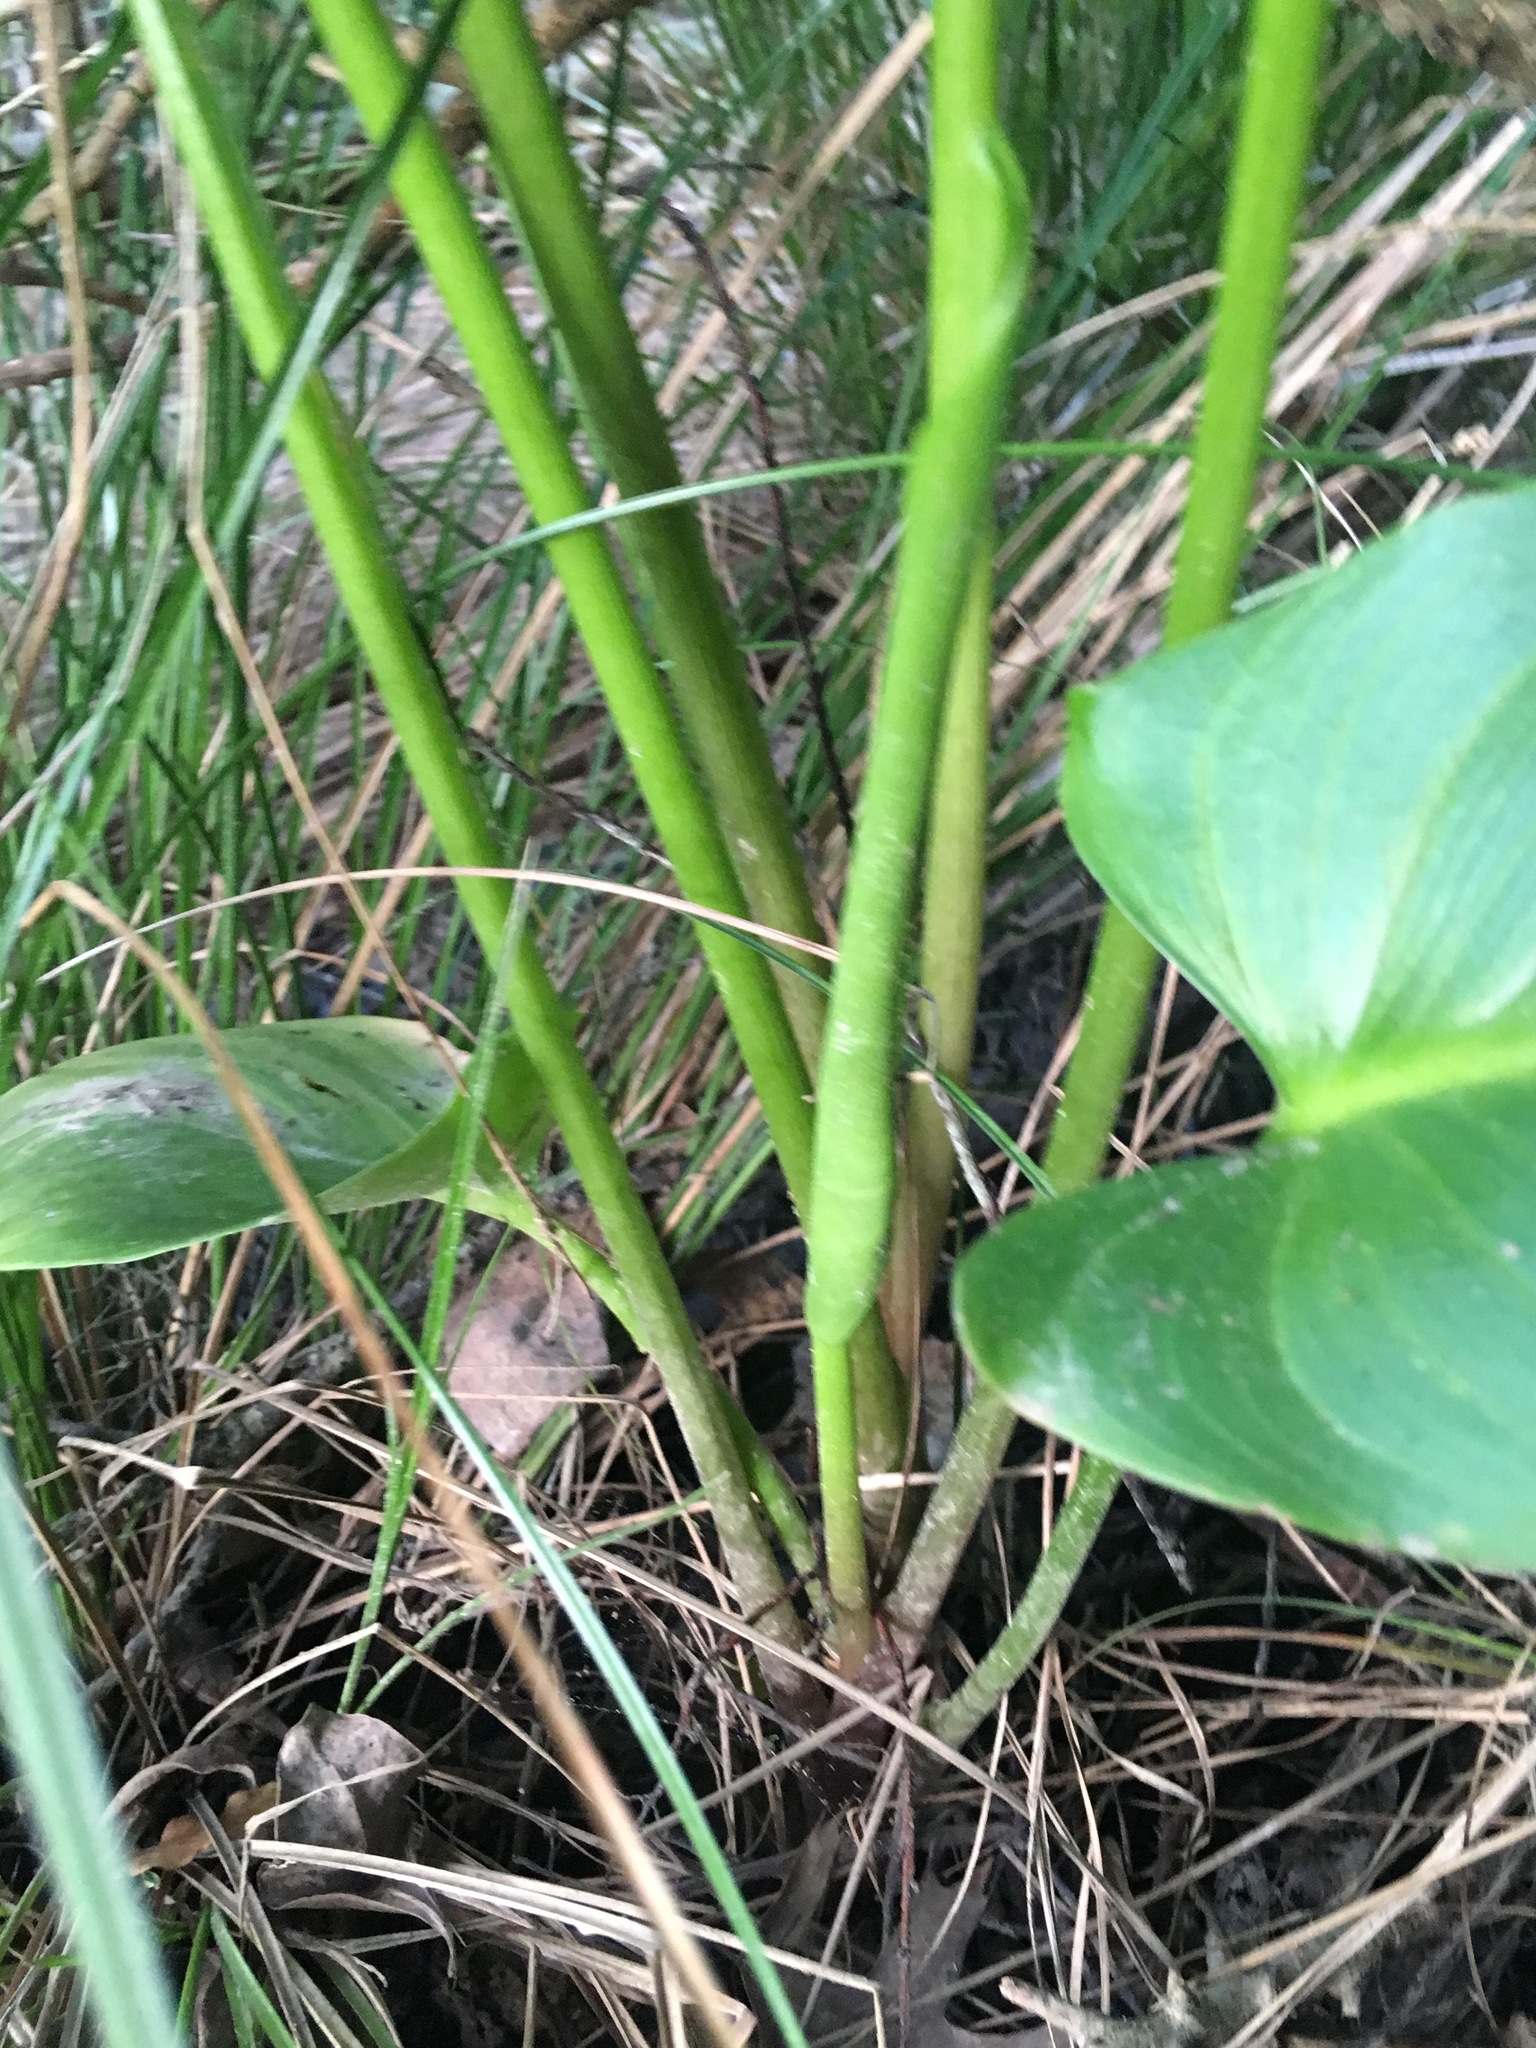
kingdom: Plantae
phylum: Tracheophyta
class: Liliopsida
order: Alismatales
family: Araceae
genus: Zantedeschia
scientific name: Zantedeschia aethiopica
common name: Altar-lily
